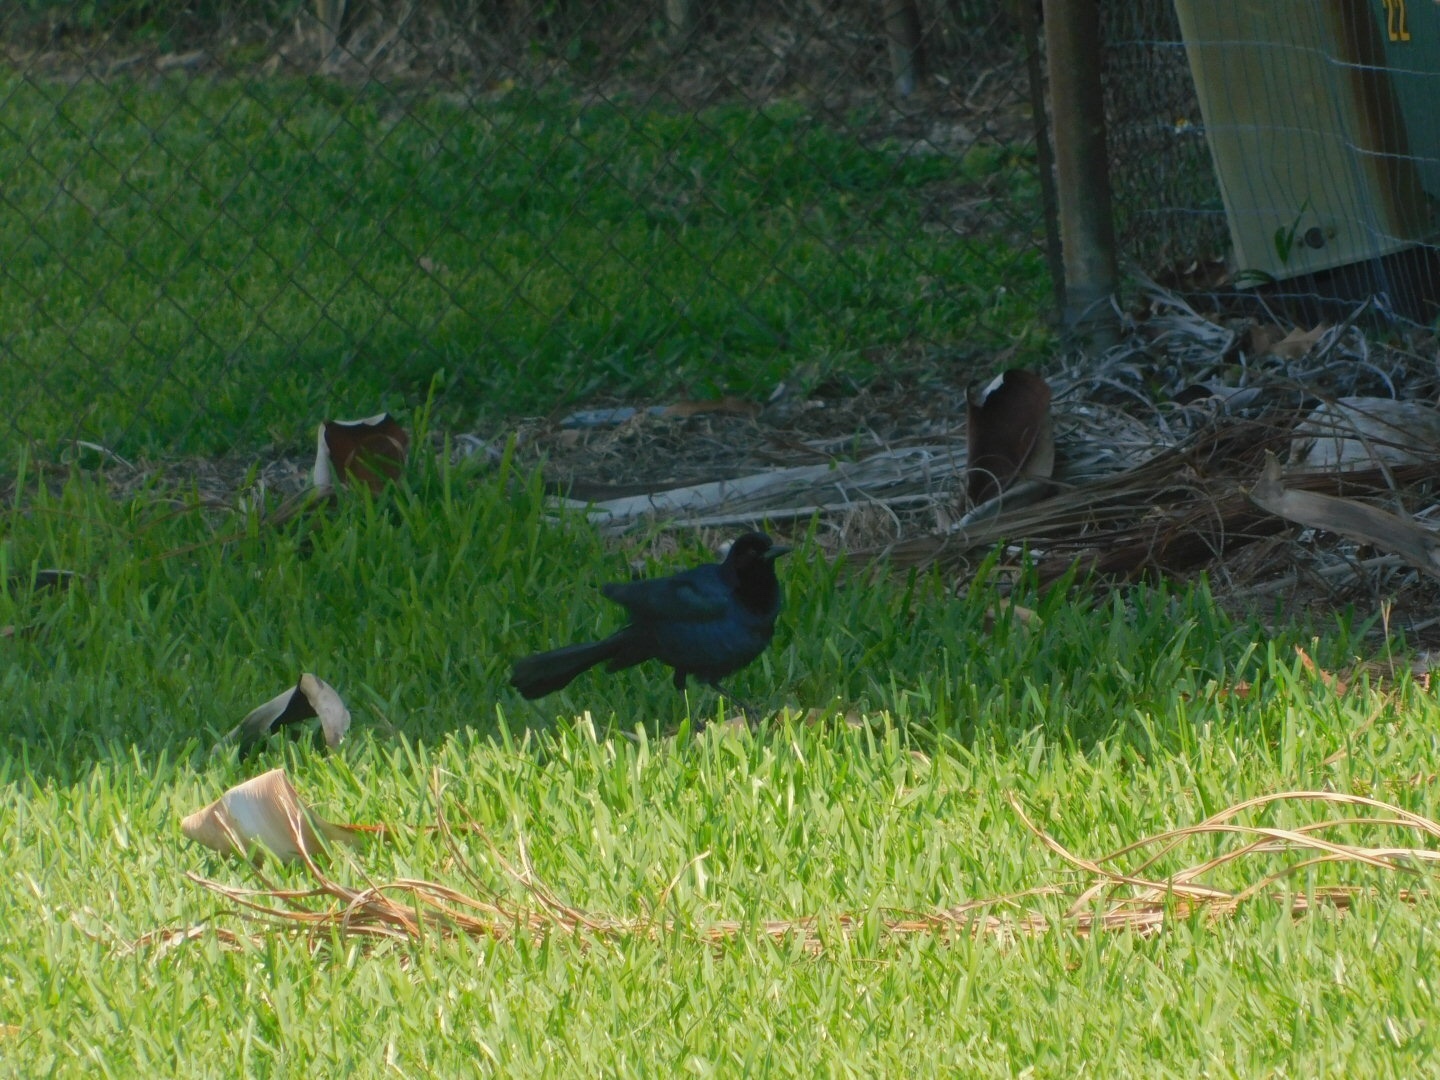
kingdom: Animalia
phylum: Chordata
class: Aves
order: Passeriformes
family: Icteridae
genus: Quiscalus
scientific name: Quiscalus major
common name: Boat-tailed grackle
